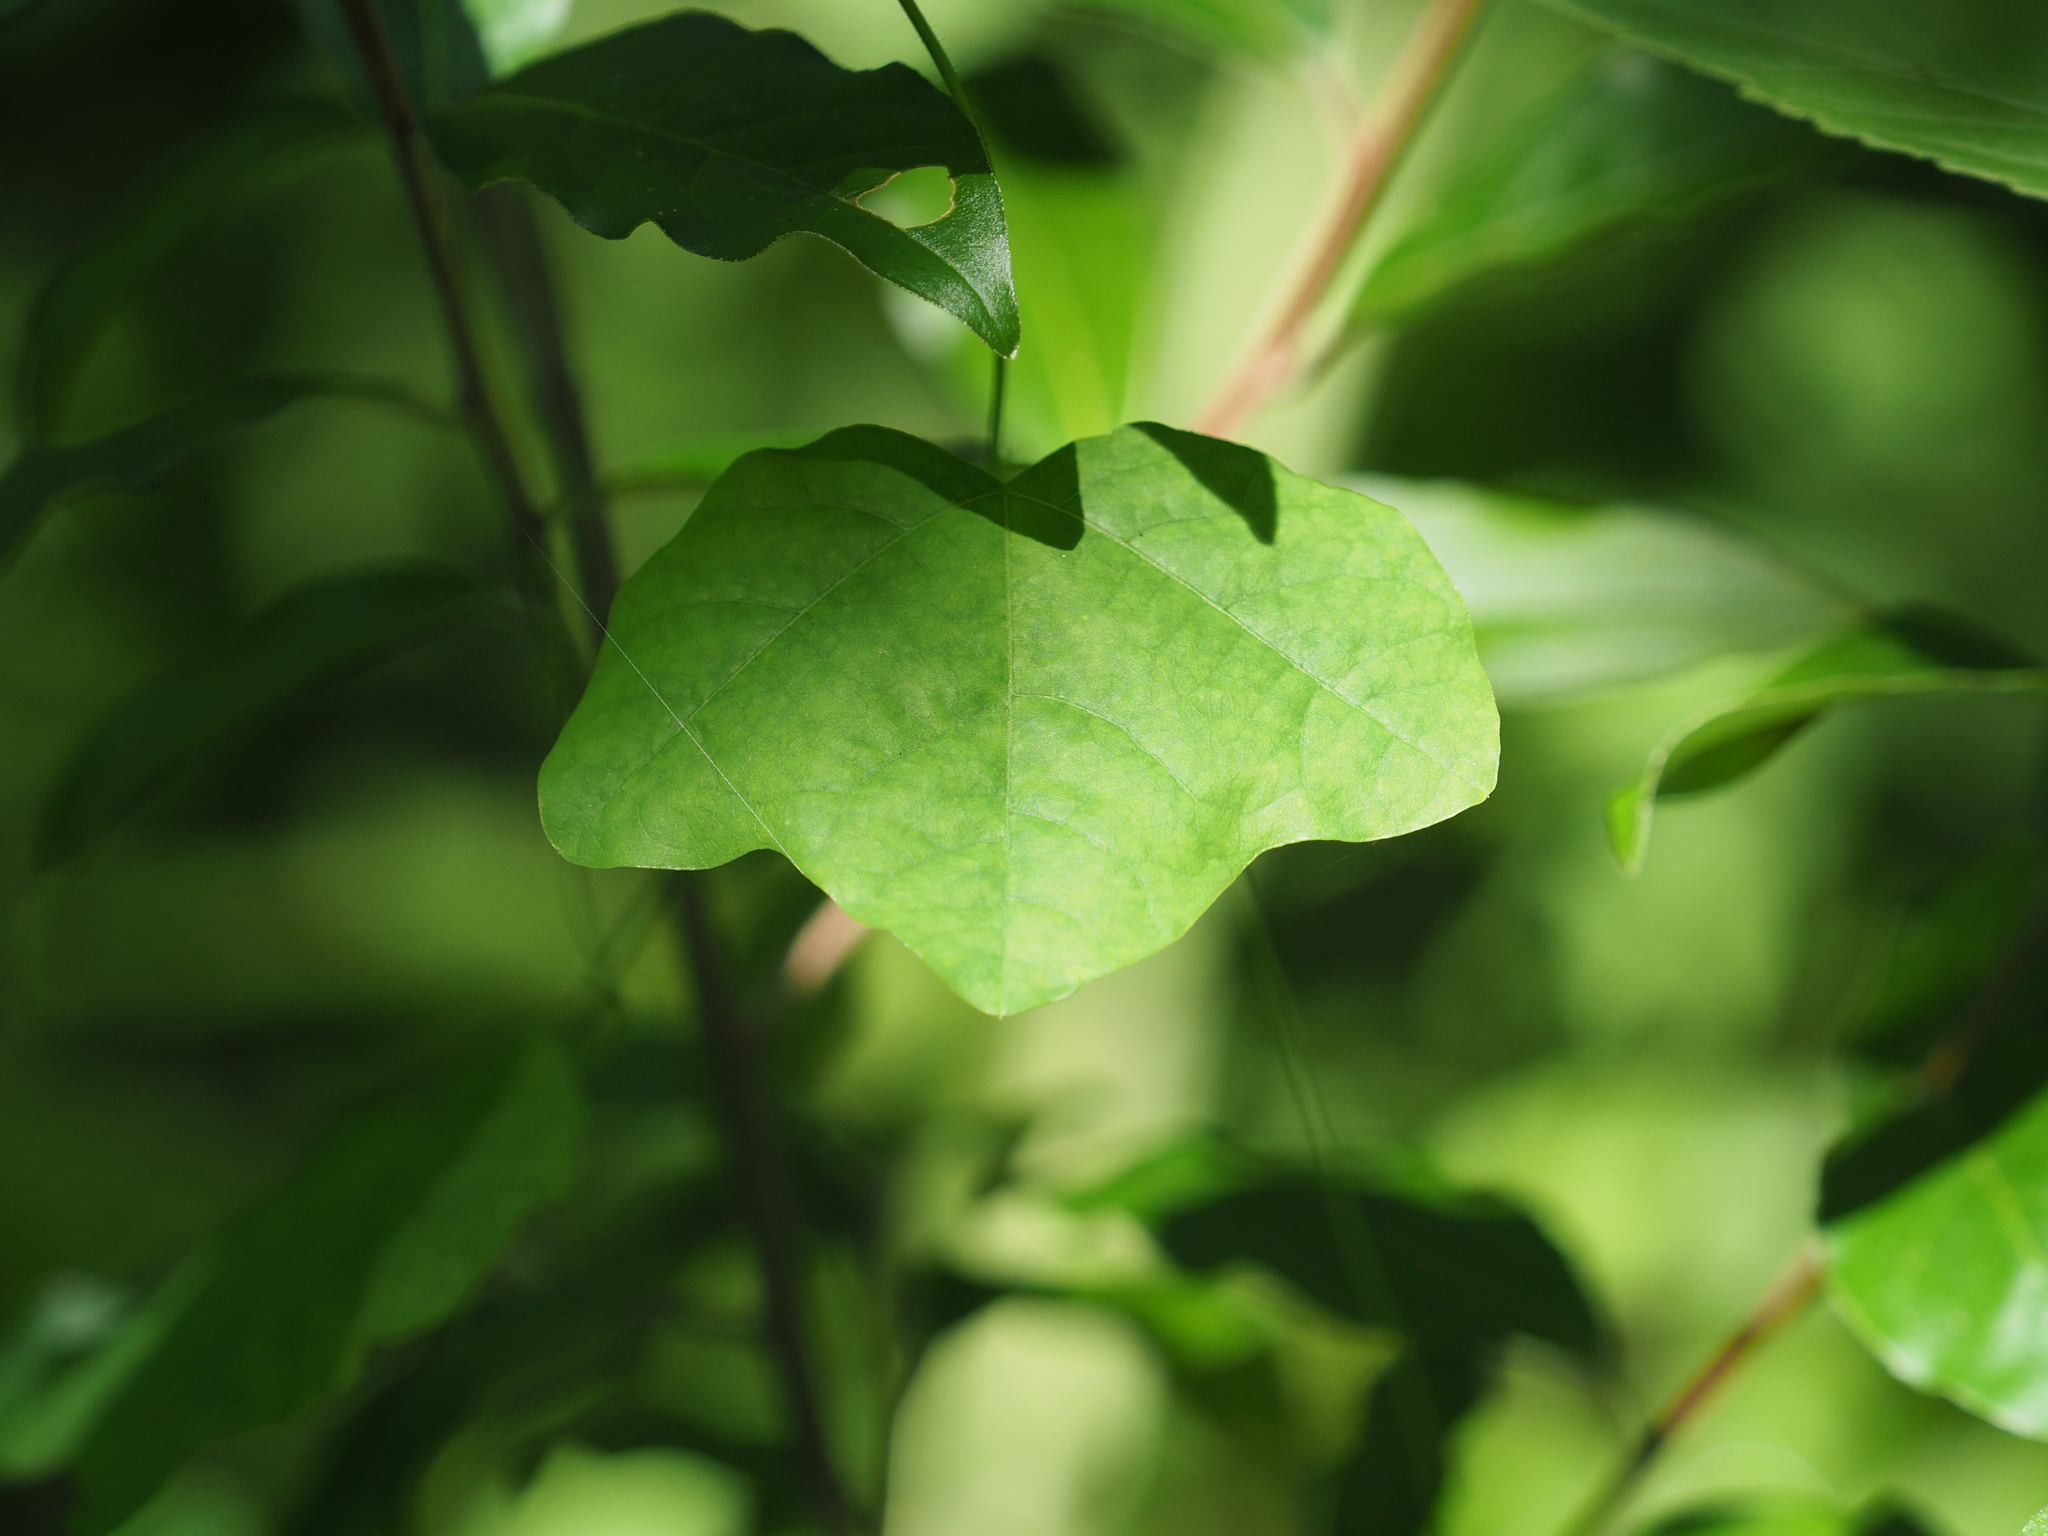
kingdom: Plantae
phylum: Tracheophyta
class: Magnoliopsida
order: Malpighiales
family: Passifloraceae
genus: Passiflora
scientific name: Passiflora lutea
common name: Yellow passionflower
